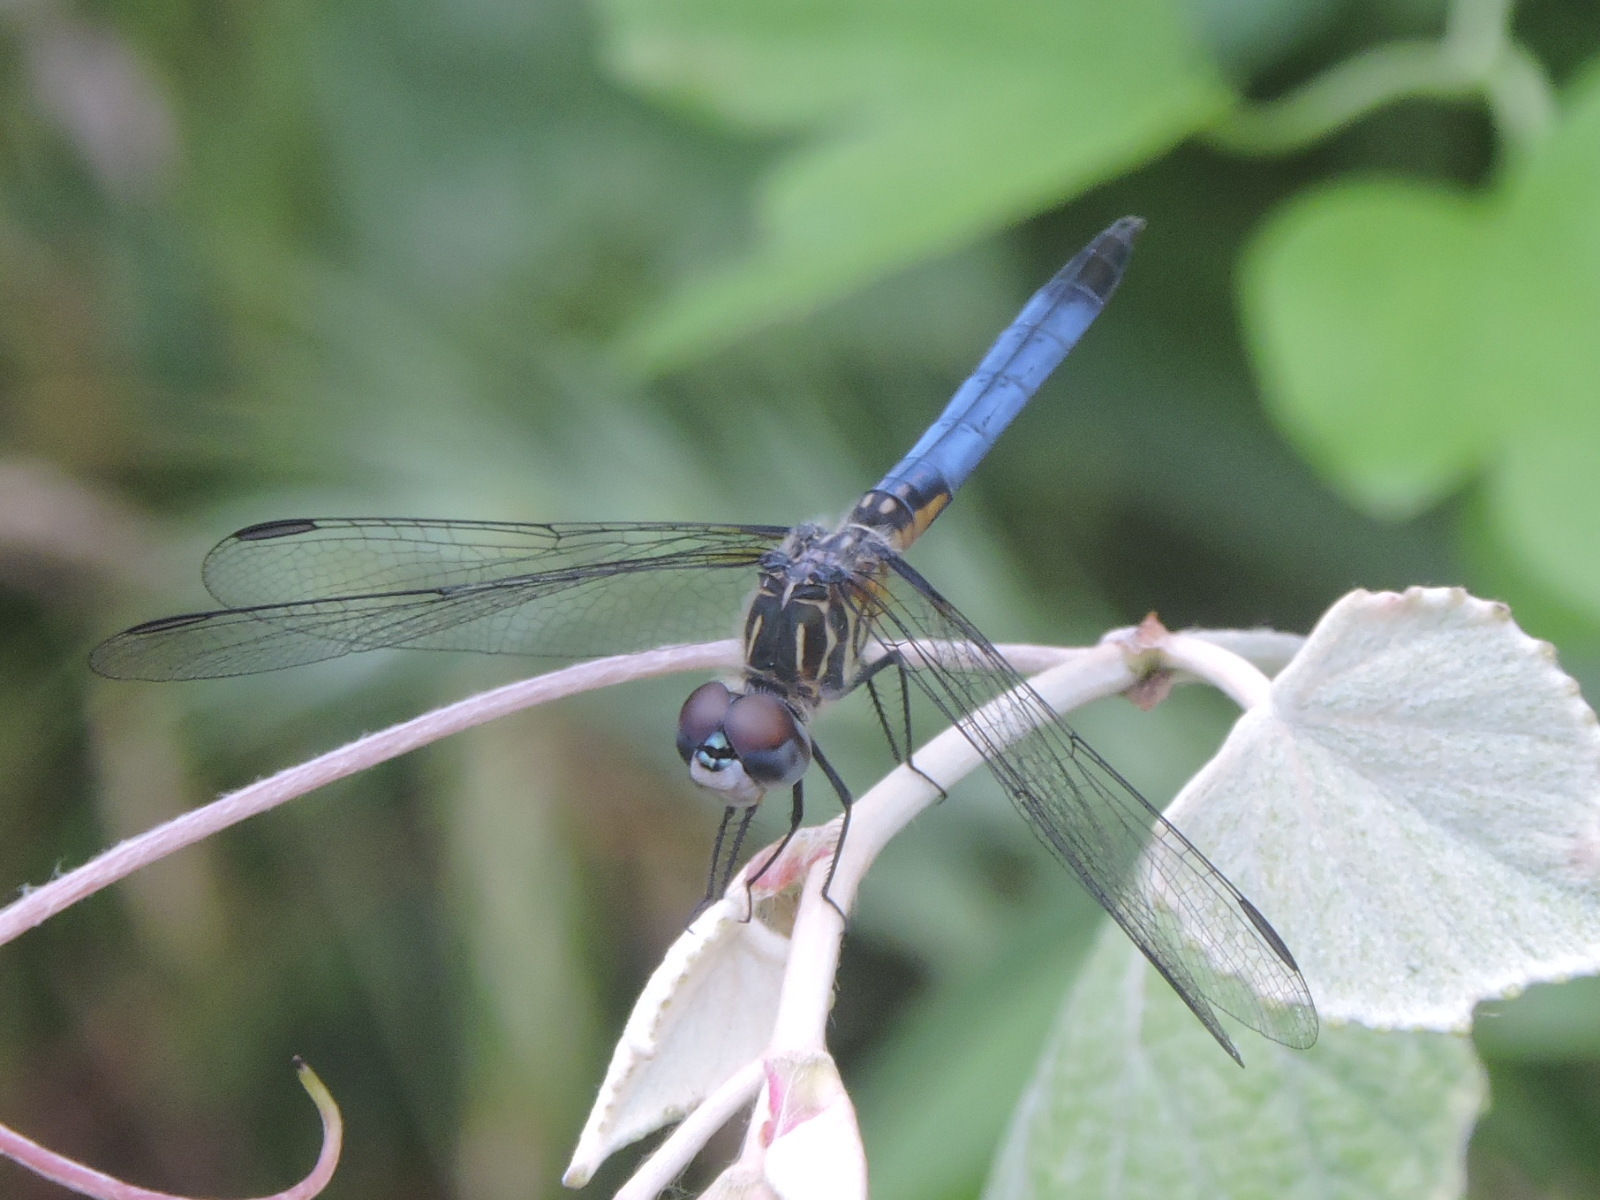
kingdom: Animalia
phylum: Arthropoda
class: Insecta
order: Odonata
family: Libellulidae
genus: Pachydiplax
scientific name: Pachydiplax longipennis
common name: Blue dasher
